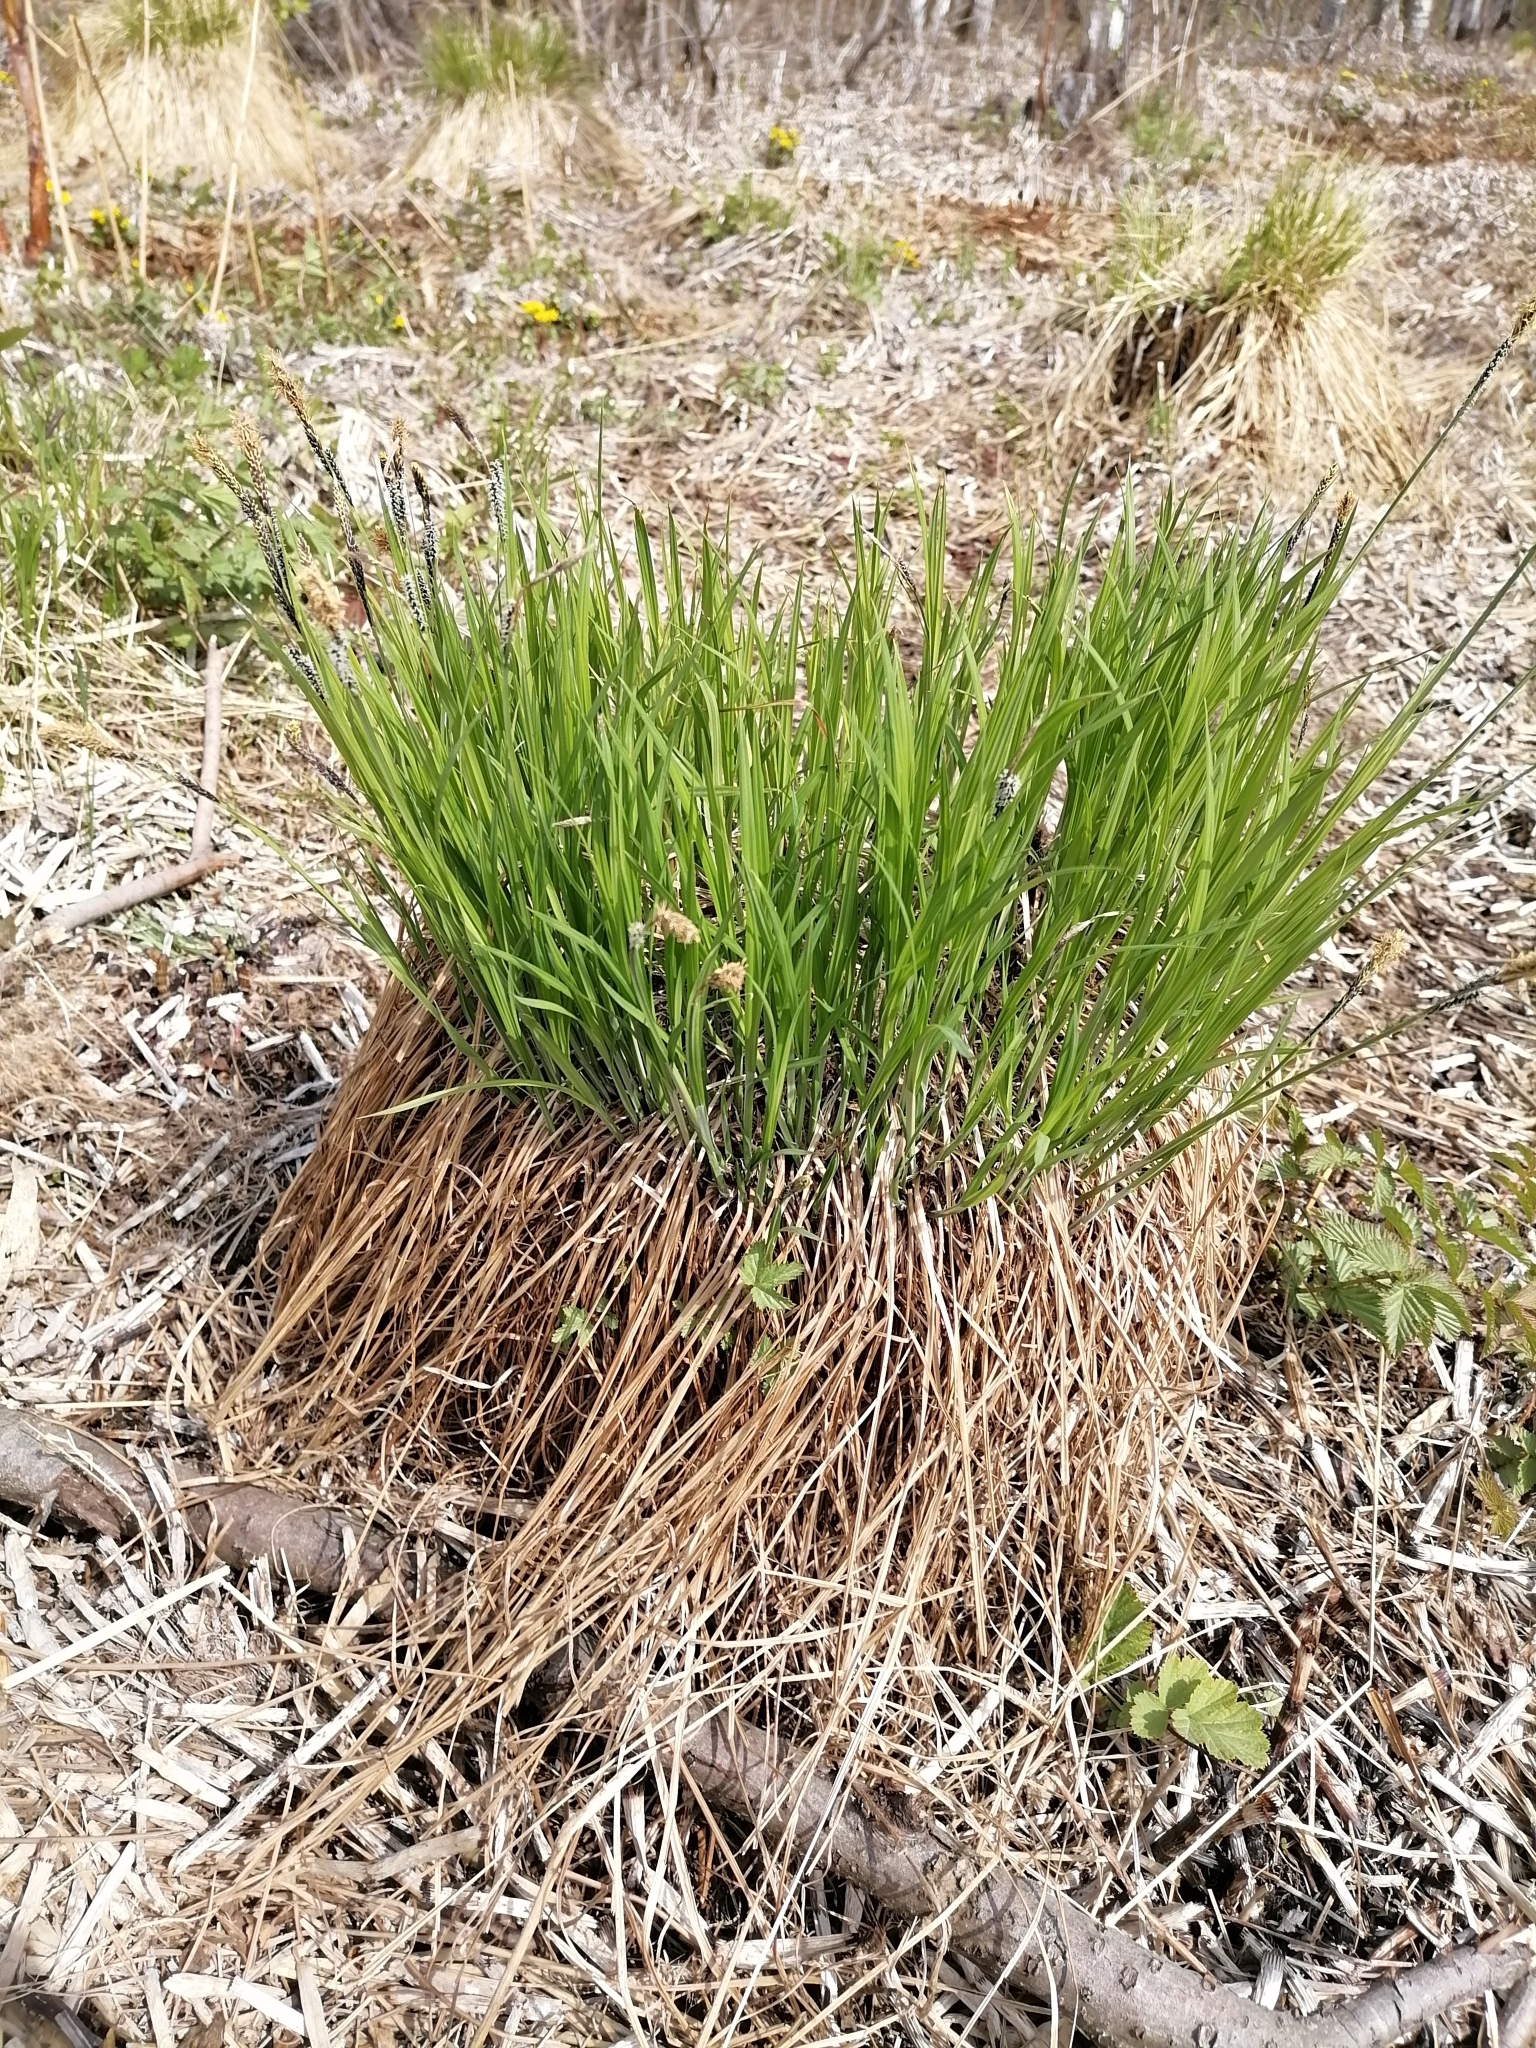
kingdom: Plantae
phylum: Tracheophyta
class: Liliopsida
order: Poales
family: Cyperaceae
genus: Carex
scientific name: Carex cespitosa
